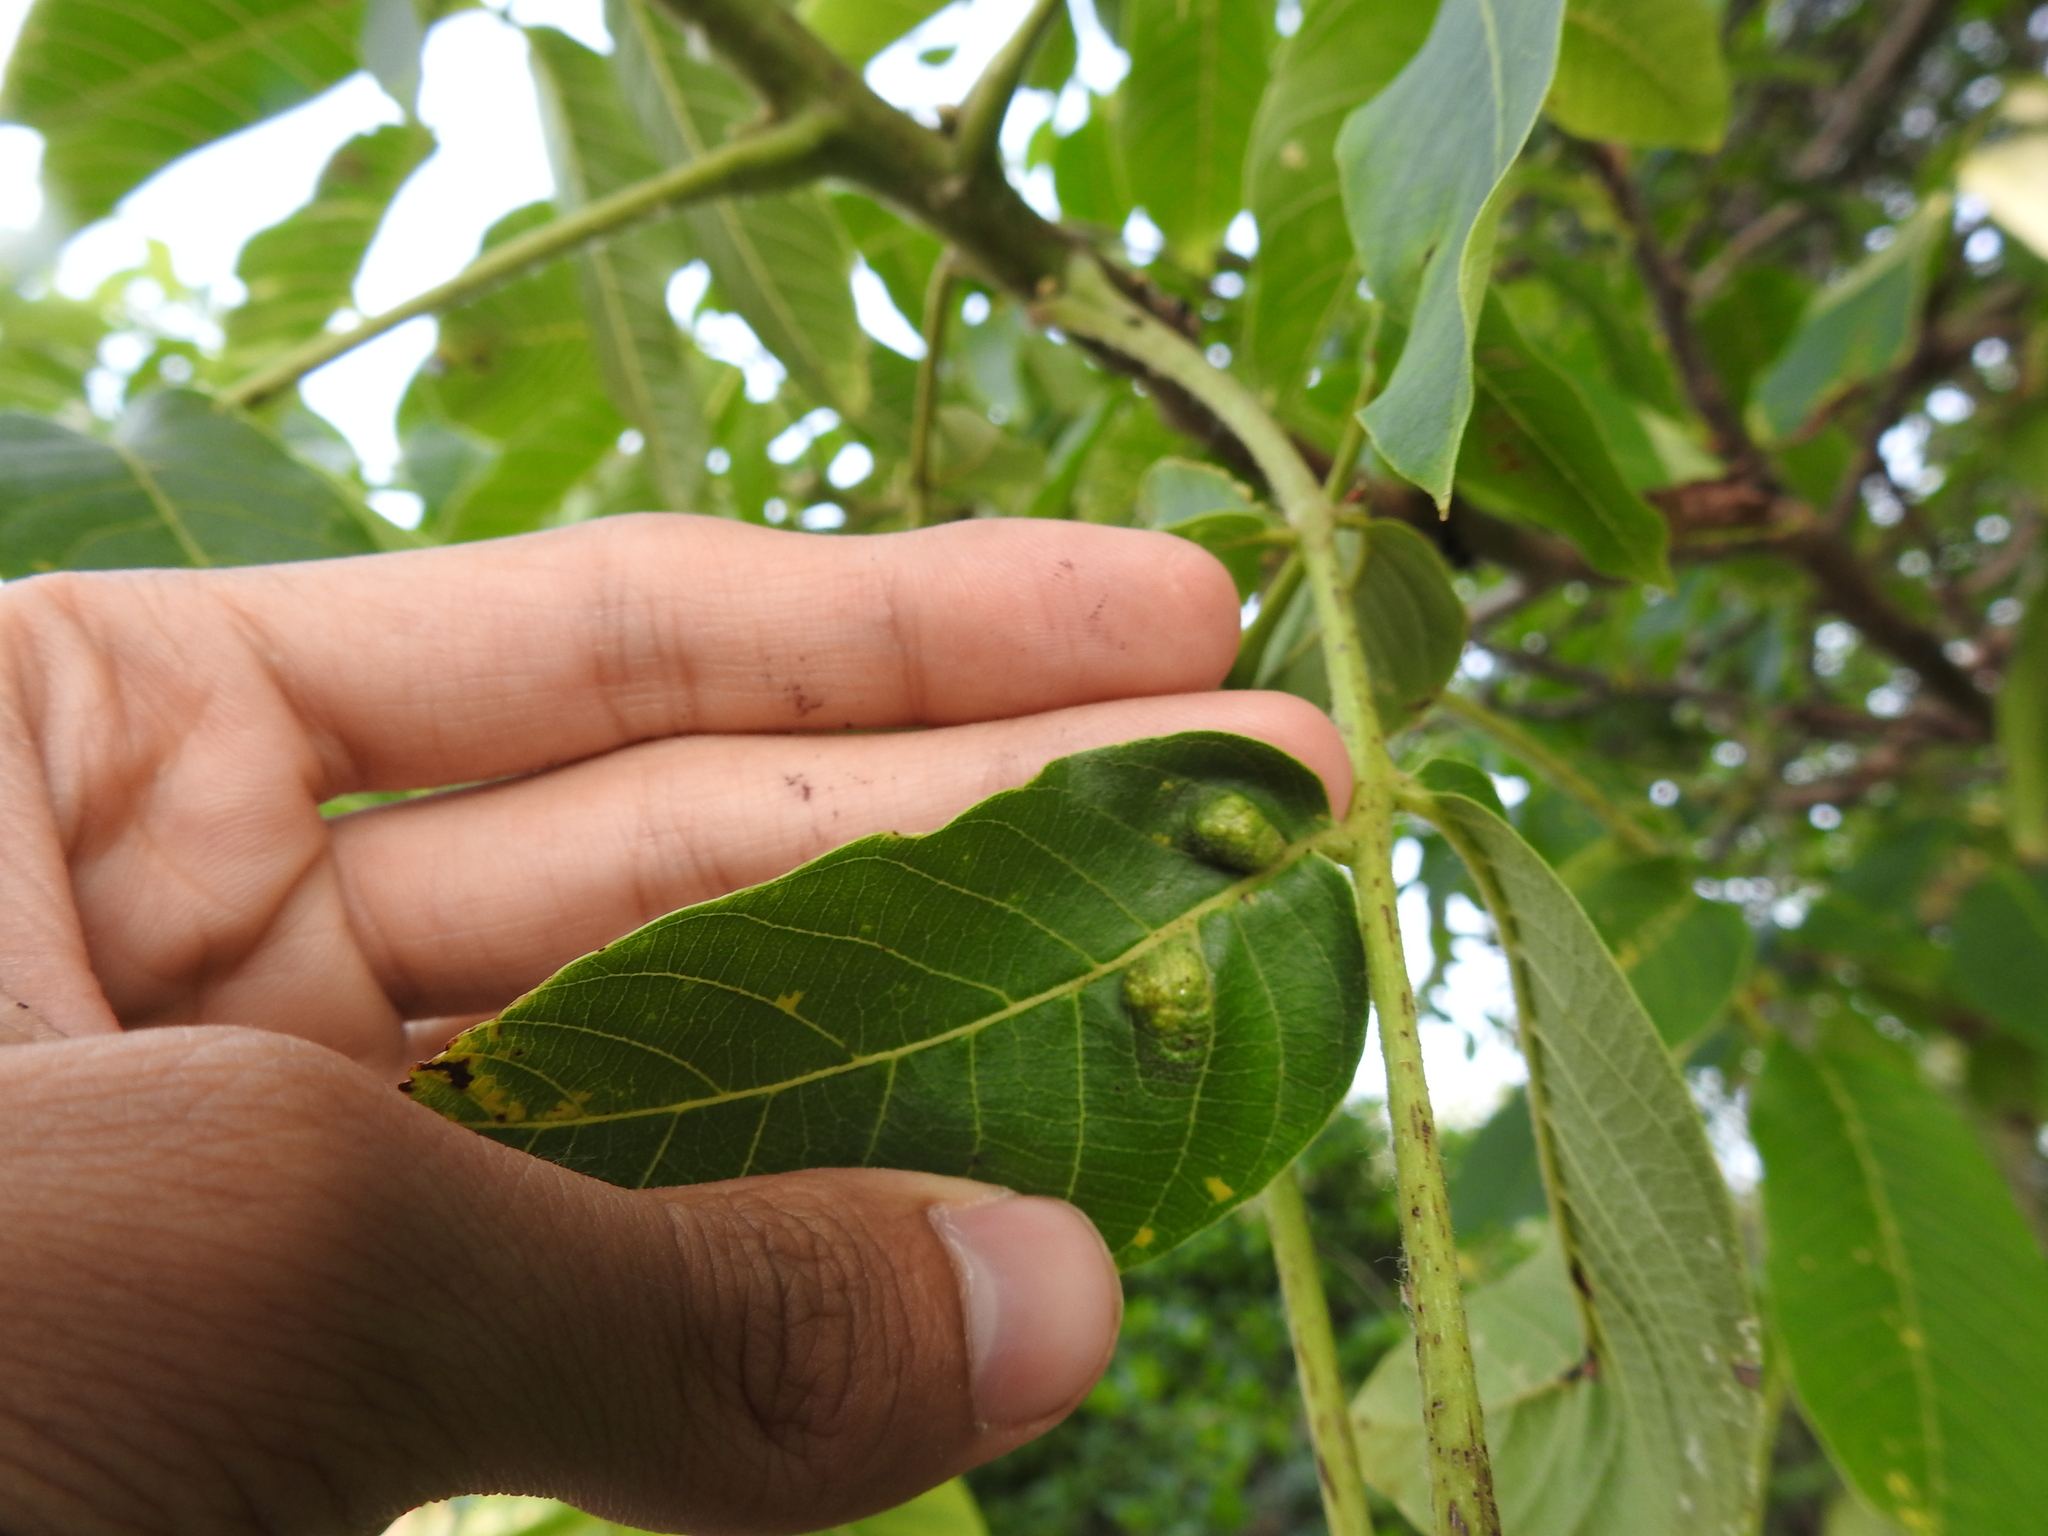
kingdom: Animalia
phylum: Arthropoda
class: Arachnida
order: Trombidiformes
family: Eriophyidae
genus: Aceria
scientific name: Aceria erinea
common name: Persian walnut erineum mite
